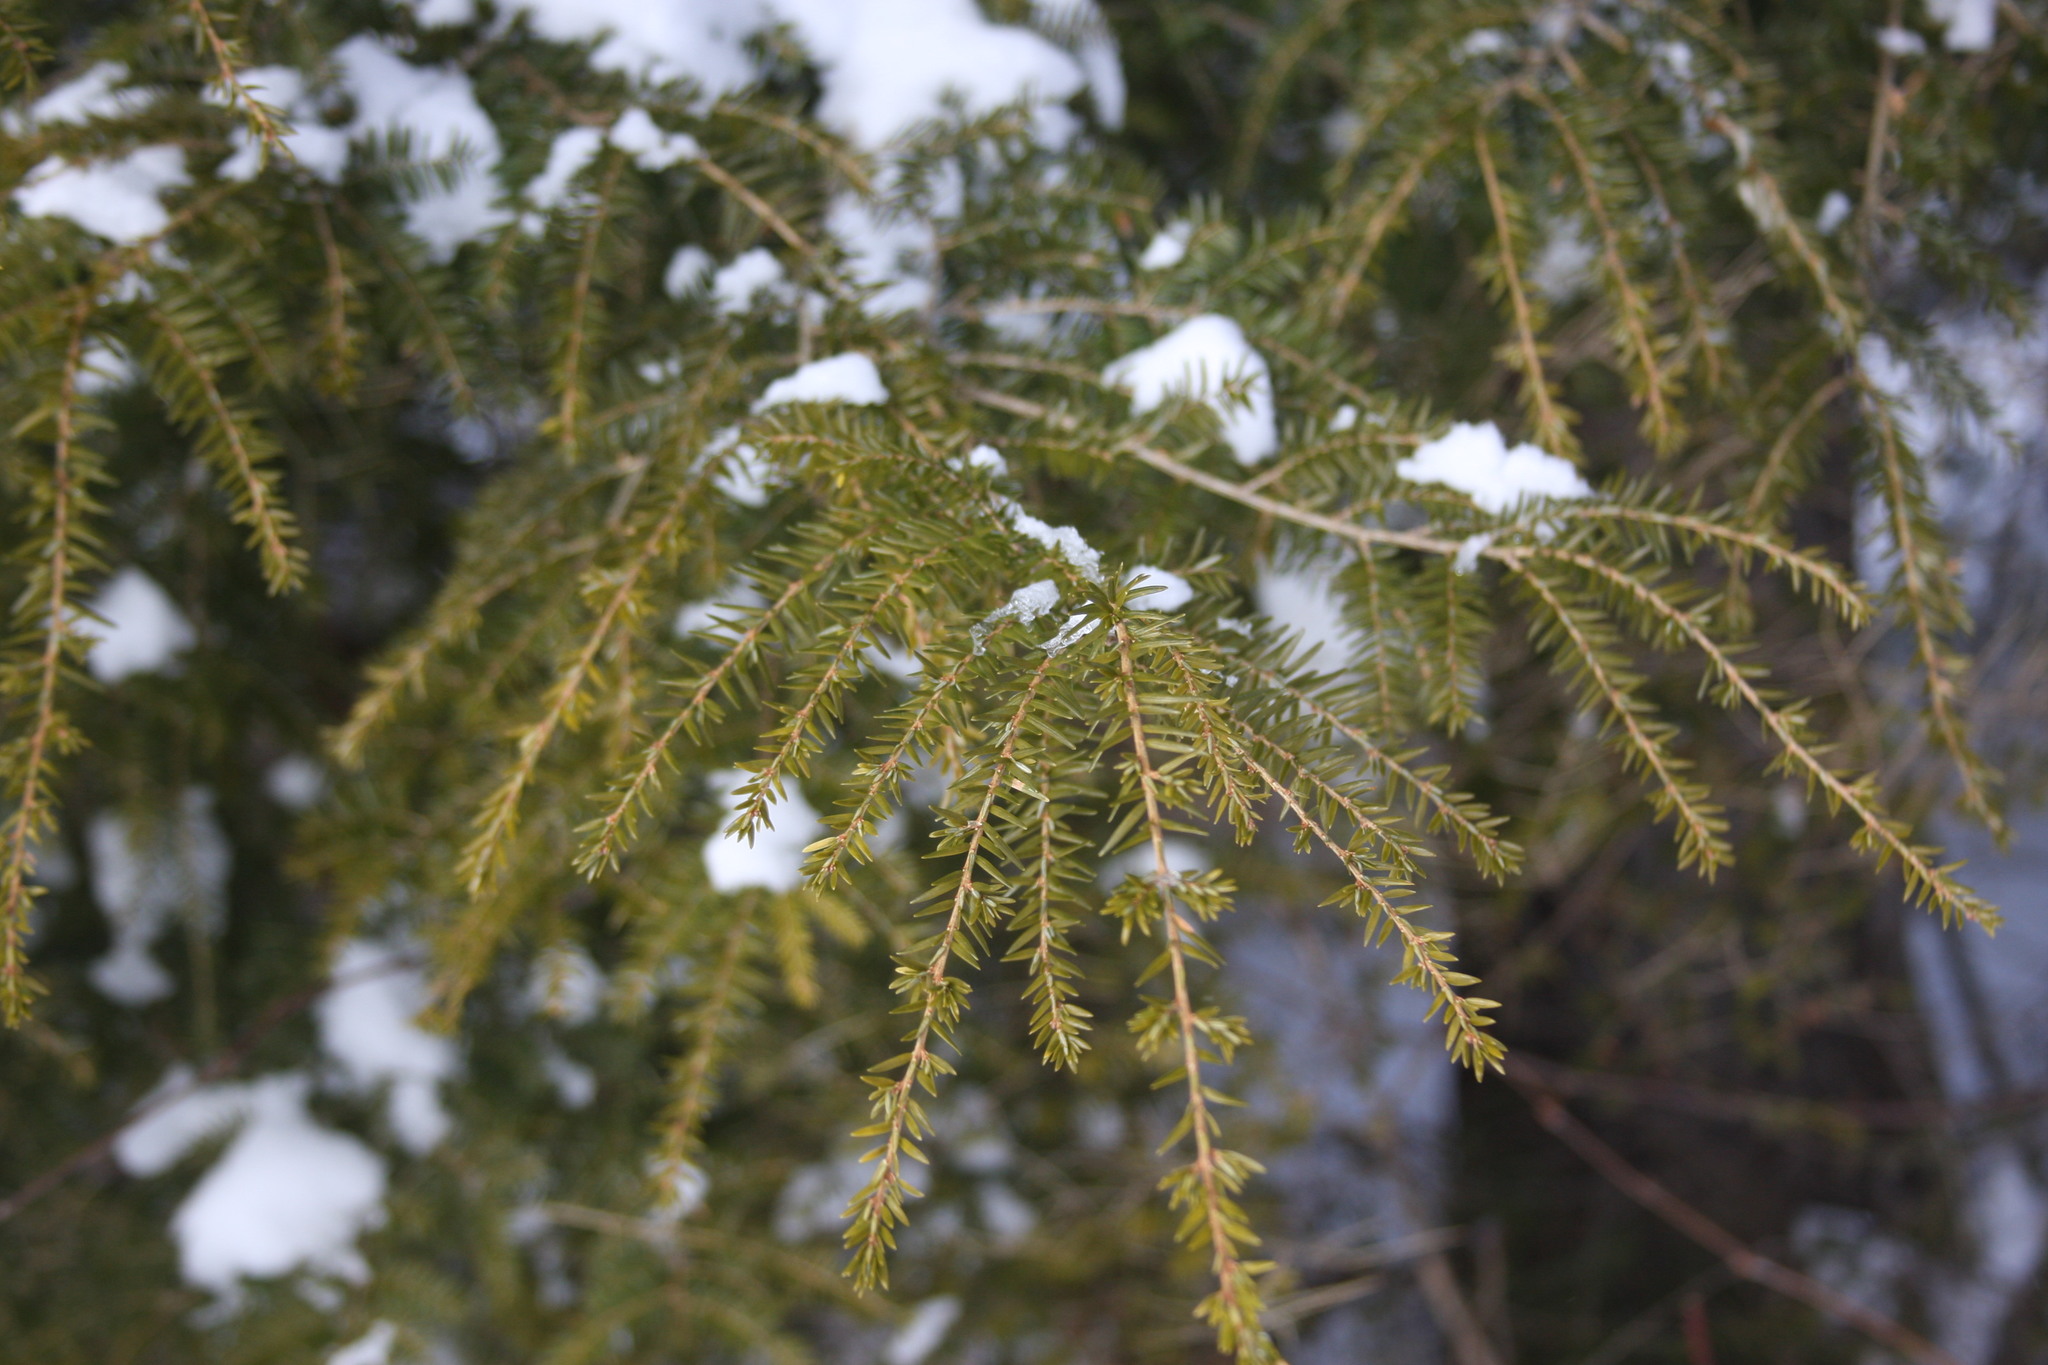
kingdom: Plantae
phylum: Tracheophyta
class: Pinopsida
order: Pinales
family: Pinaceae
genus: Tsuga
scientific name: Tsuga canadensis
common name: Eastern hemlock
